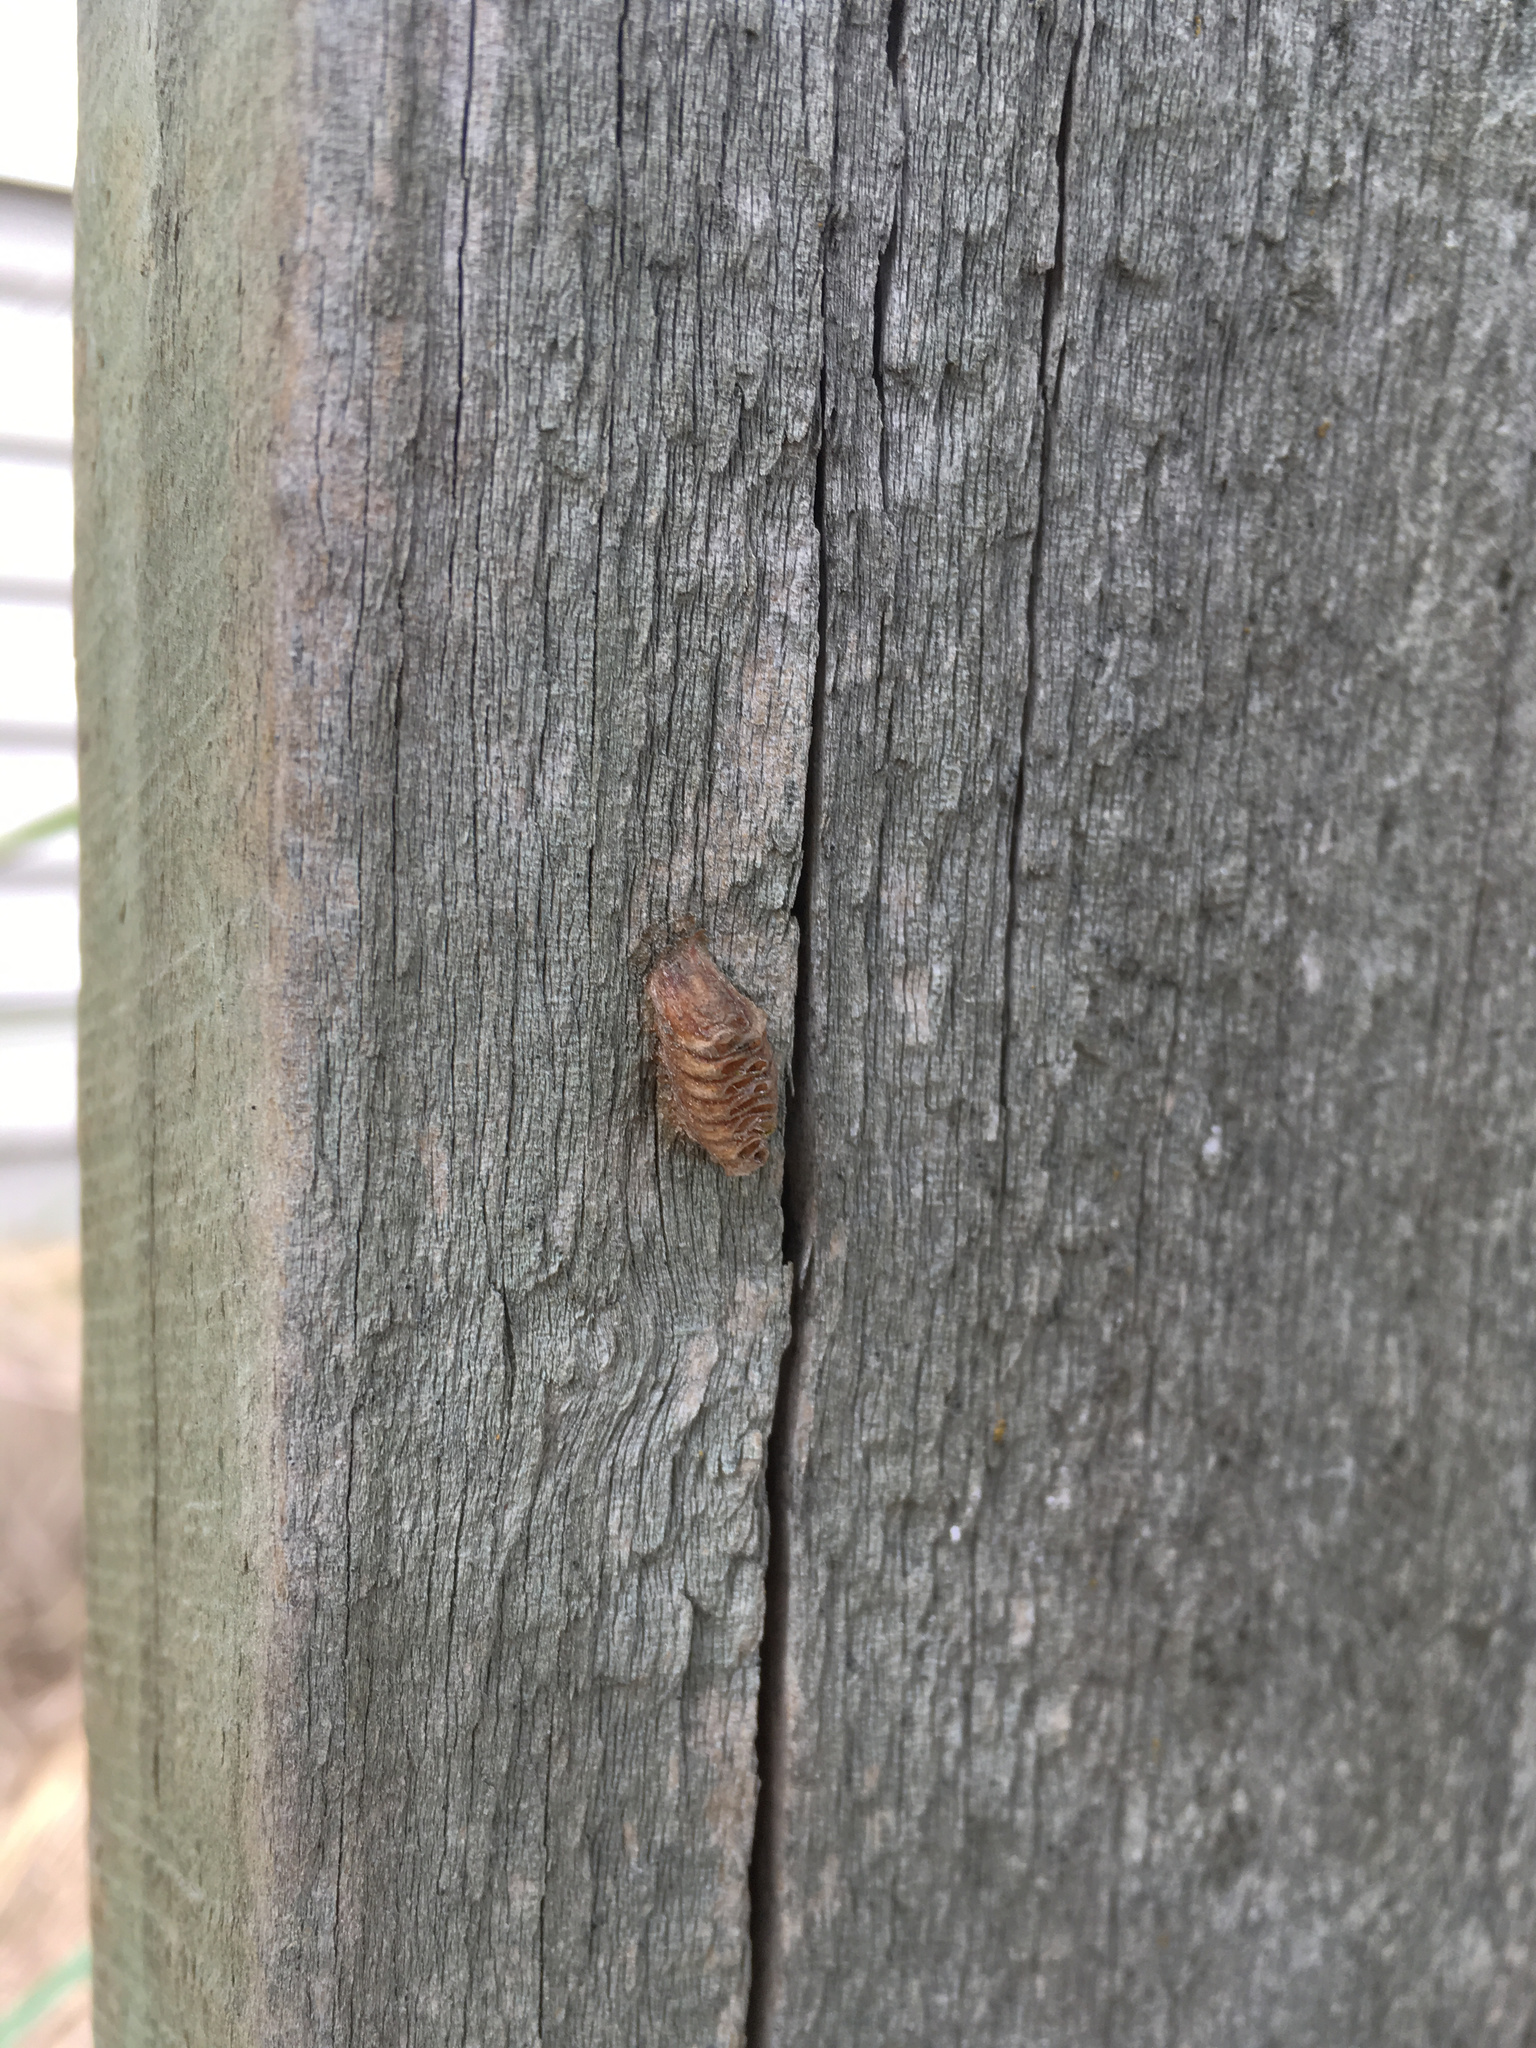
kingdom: Animalia
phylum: Arthropoda
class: Insecta
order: Mantodea
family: Mantidae
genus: Orthodera
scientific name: Orthodera novaezealandiae
